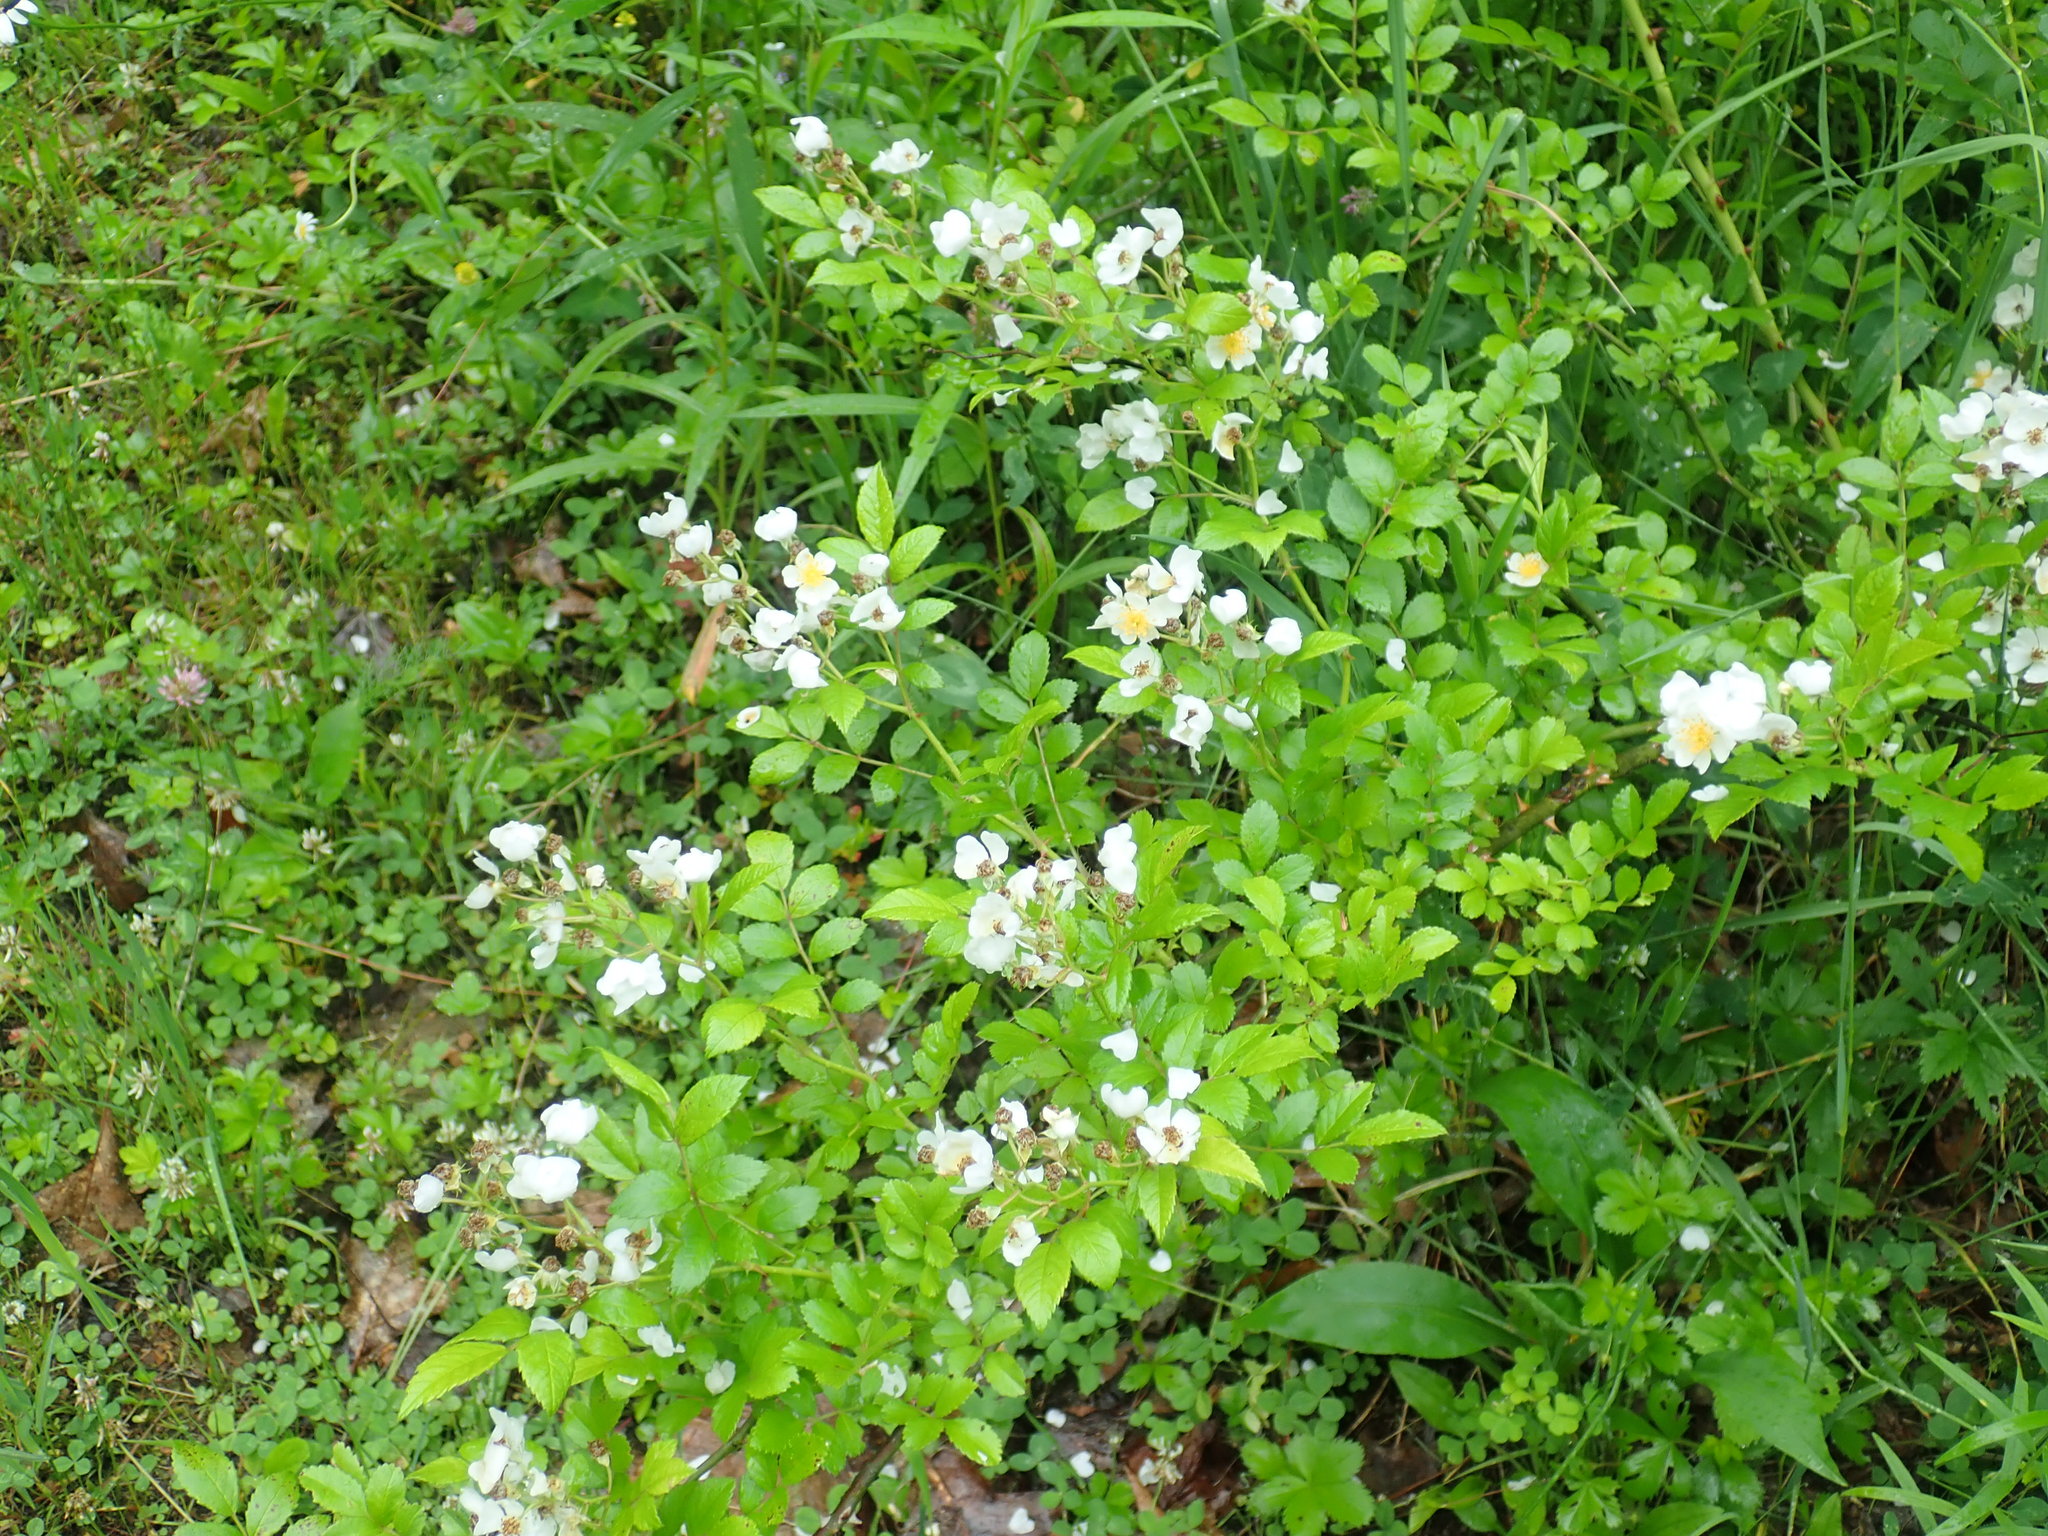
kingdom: Plantae
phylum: Tracheophyta
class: Magnoliopsida
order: Rosales
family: Rosaceae
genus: Rosa
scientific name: Rosa multiflora
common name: Multiflora rose
